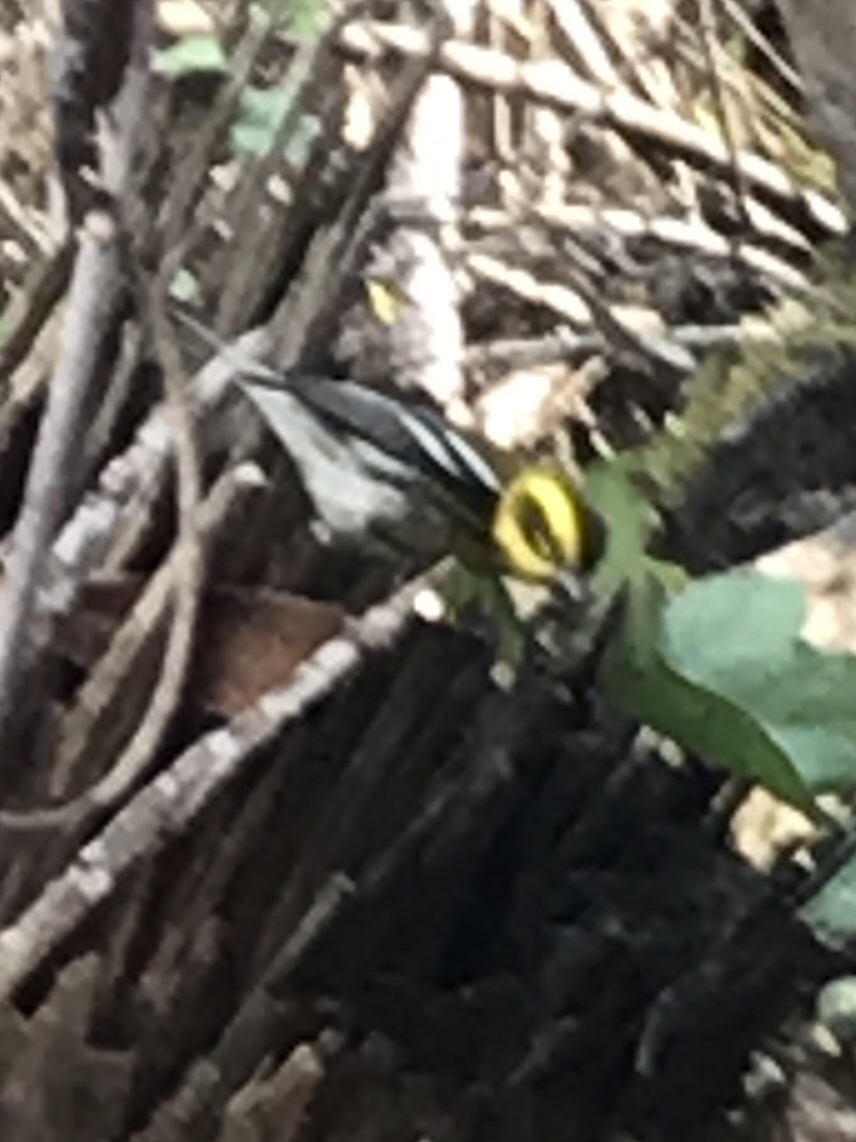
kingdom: Animalia
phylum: Chordata
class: Aves
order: Passeriformes
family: Parulidae
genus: Setophaga
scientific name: Setophaga townsendi
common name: Townsend's warbler
